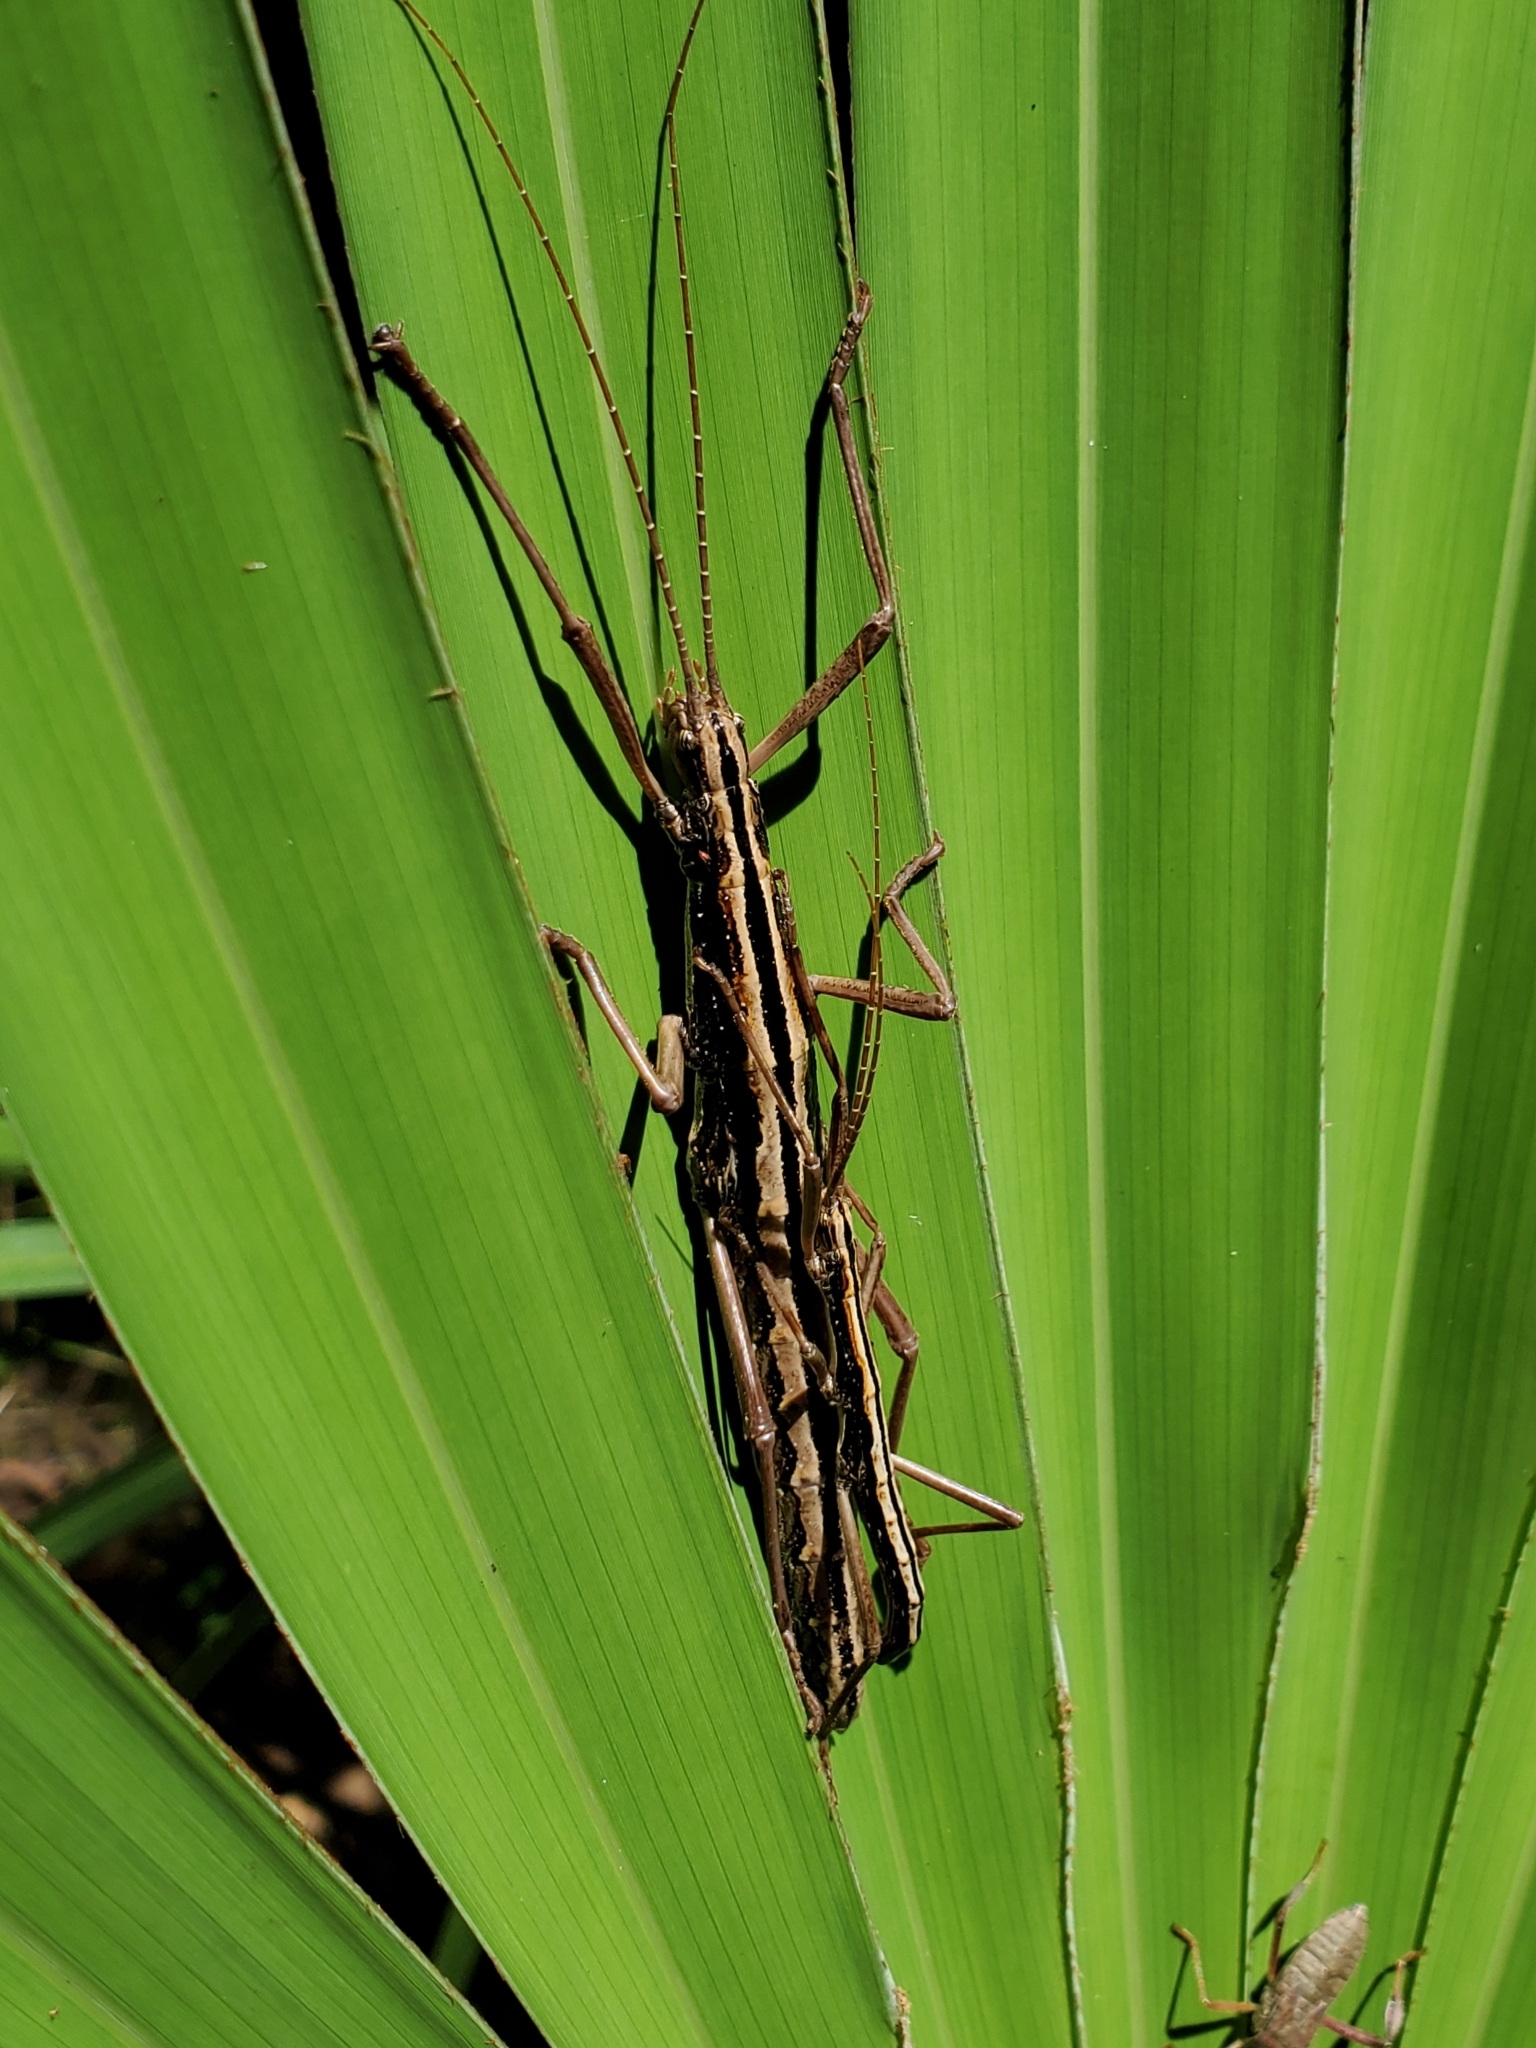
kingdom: Animalia
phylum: Arthropoda
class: Insecta
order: Phasmida
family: Pseudophasmatidae
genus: Anisomorpha
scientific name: Anisomorpha buprestoides
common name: Florida stick insect
